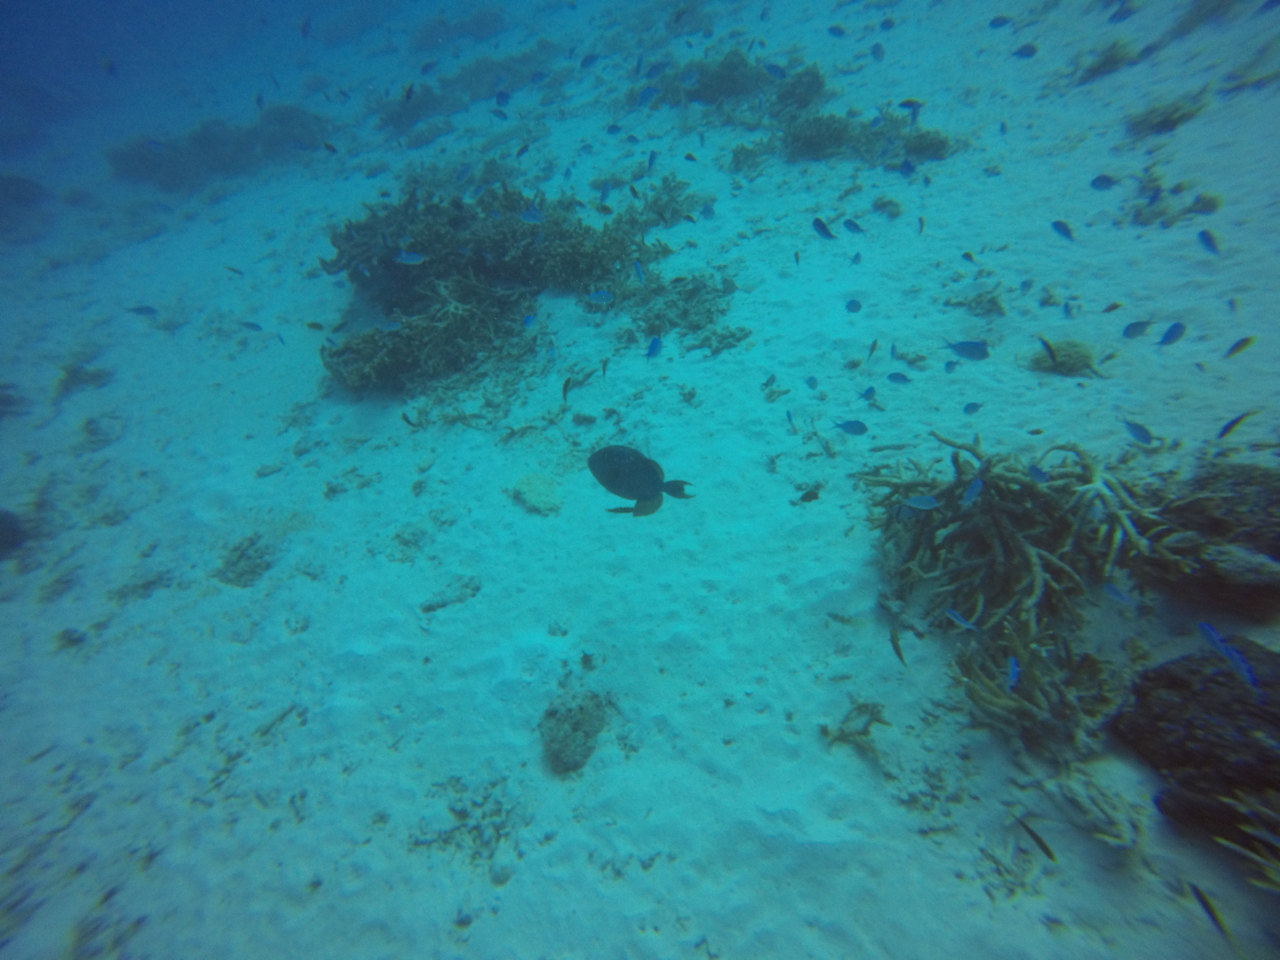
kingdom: Animalia
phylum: Chordata
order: Tetraodontiformes
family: Balistidae
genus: Odonus
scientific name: Odonus niger
